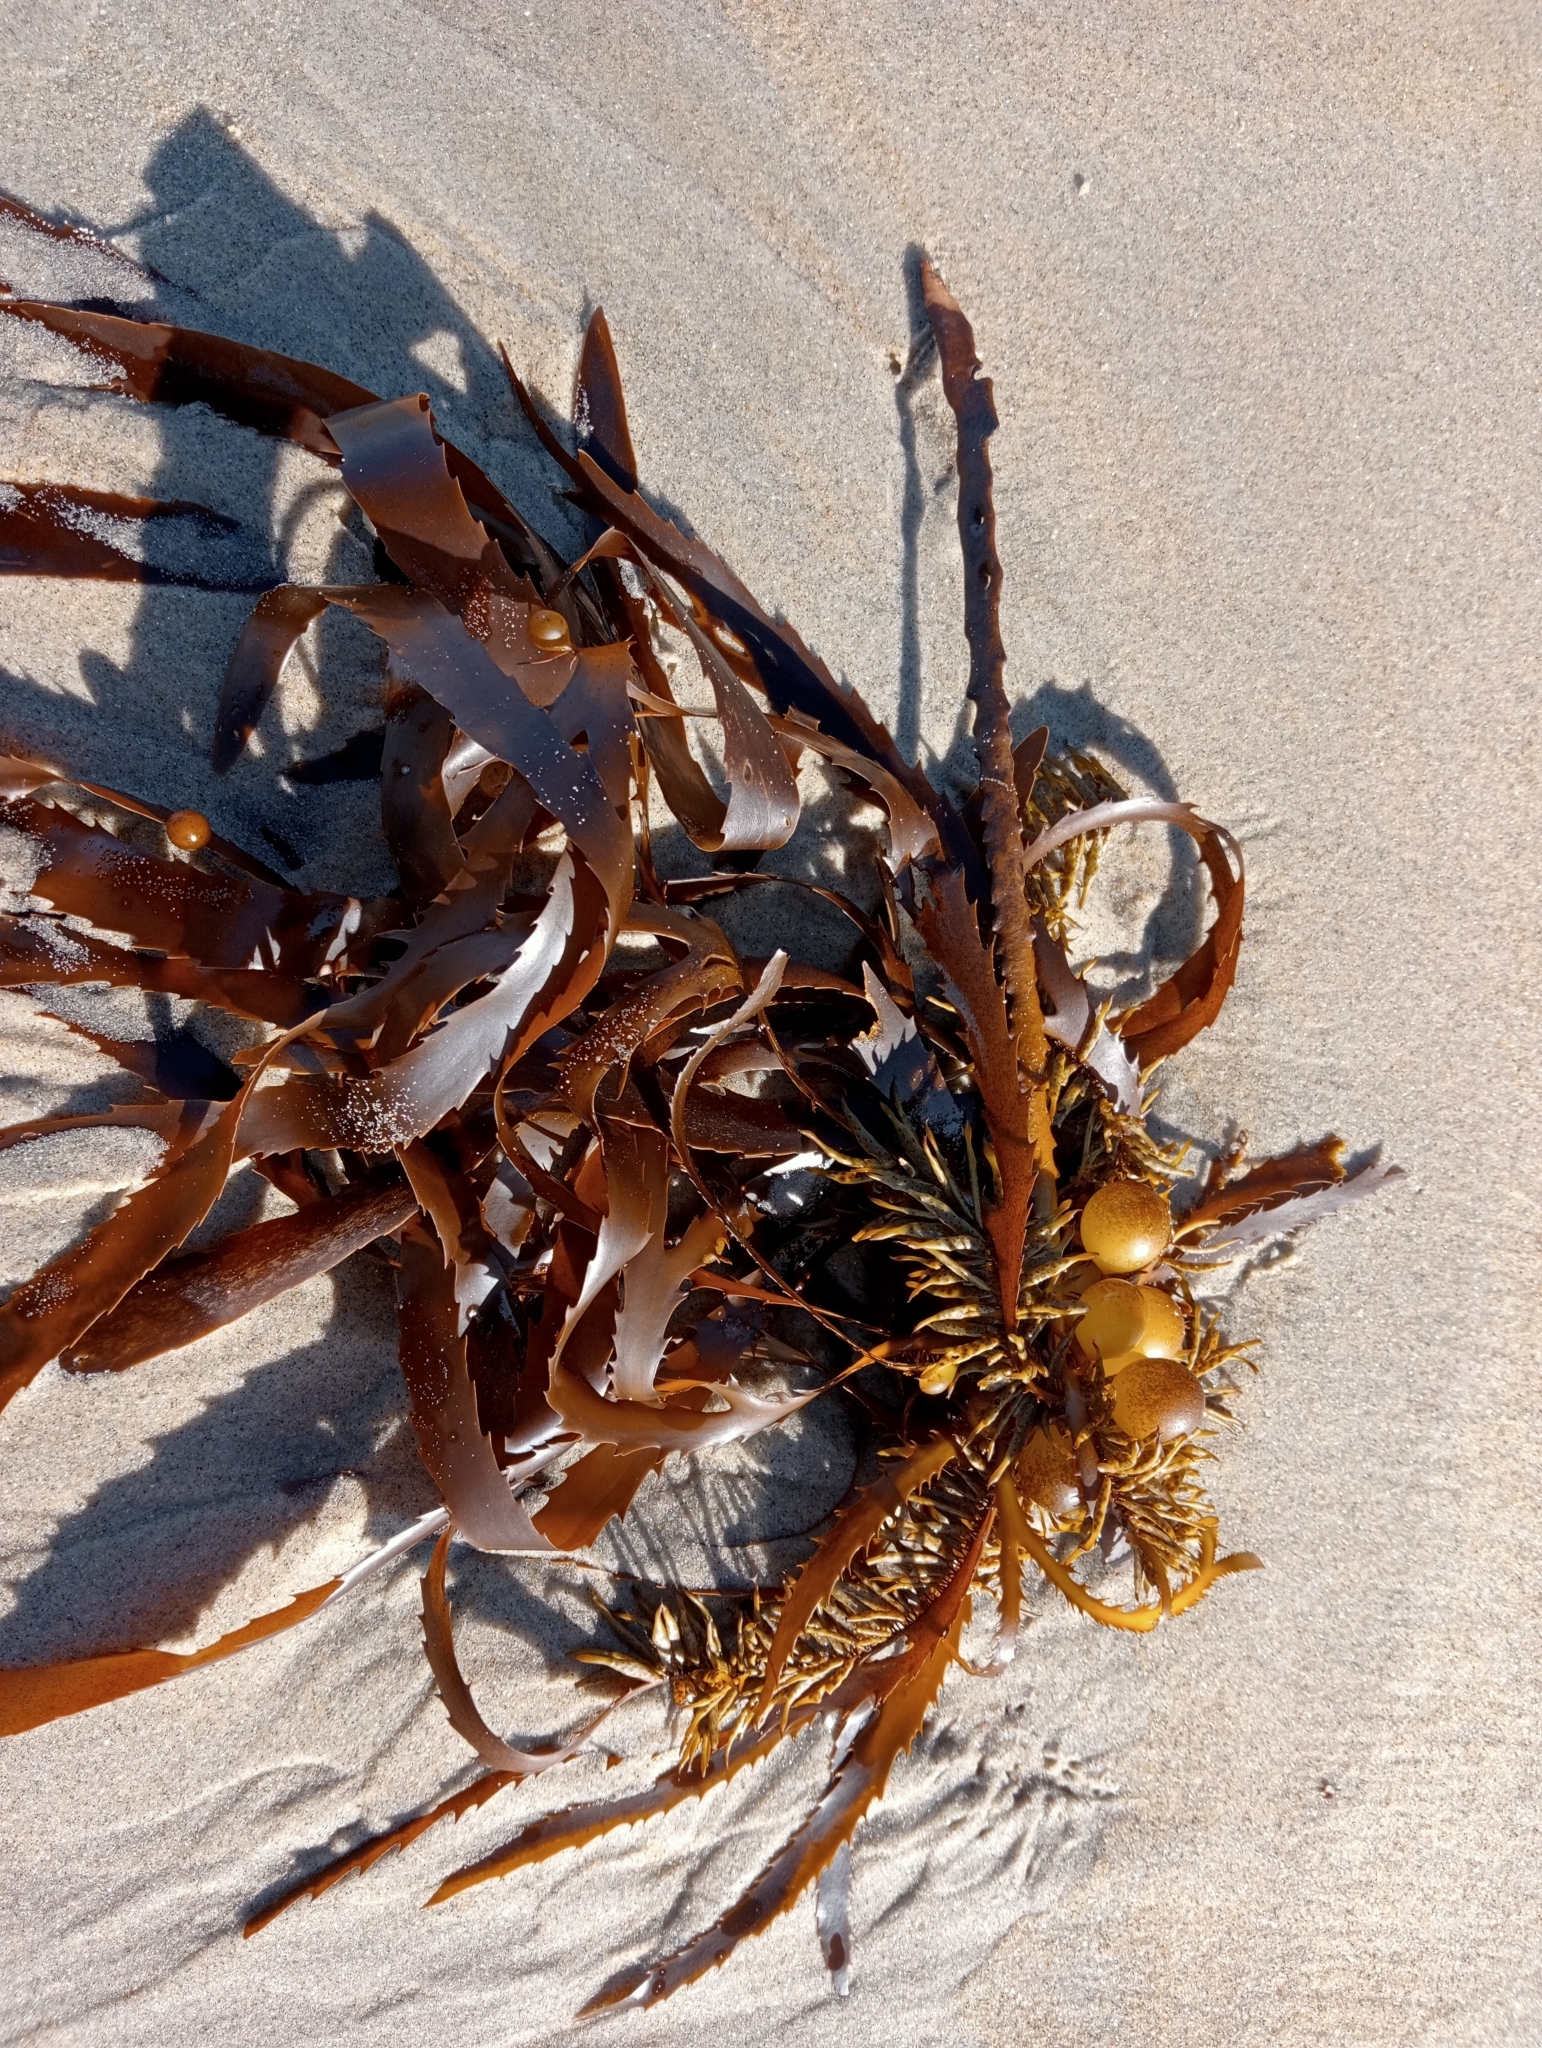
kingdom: Chromista
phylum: Ochrophyta
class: Phaeophyceae
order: Fucales
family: Seirococcaceae
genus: Marginariella
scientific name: Marginariella urvilliana
